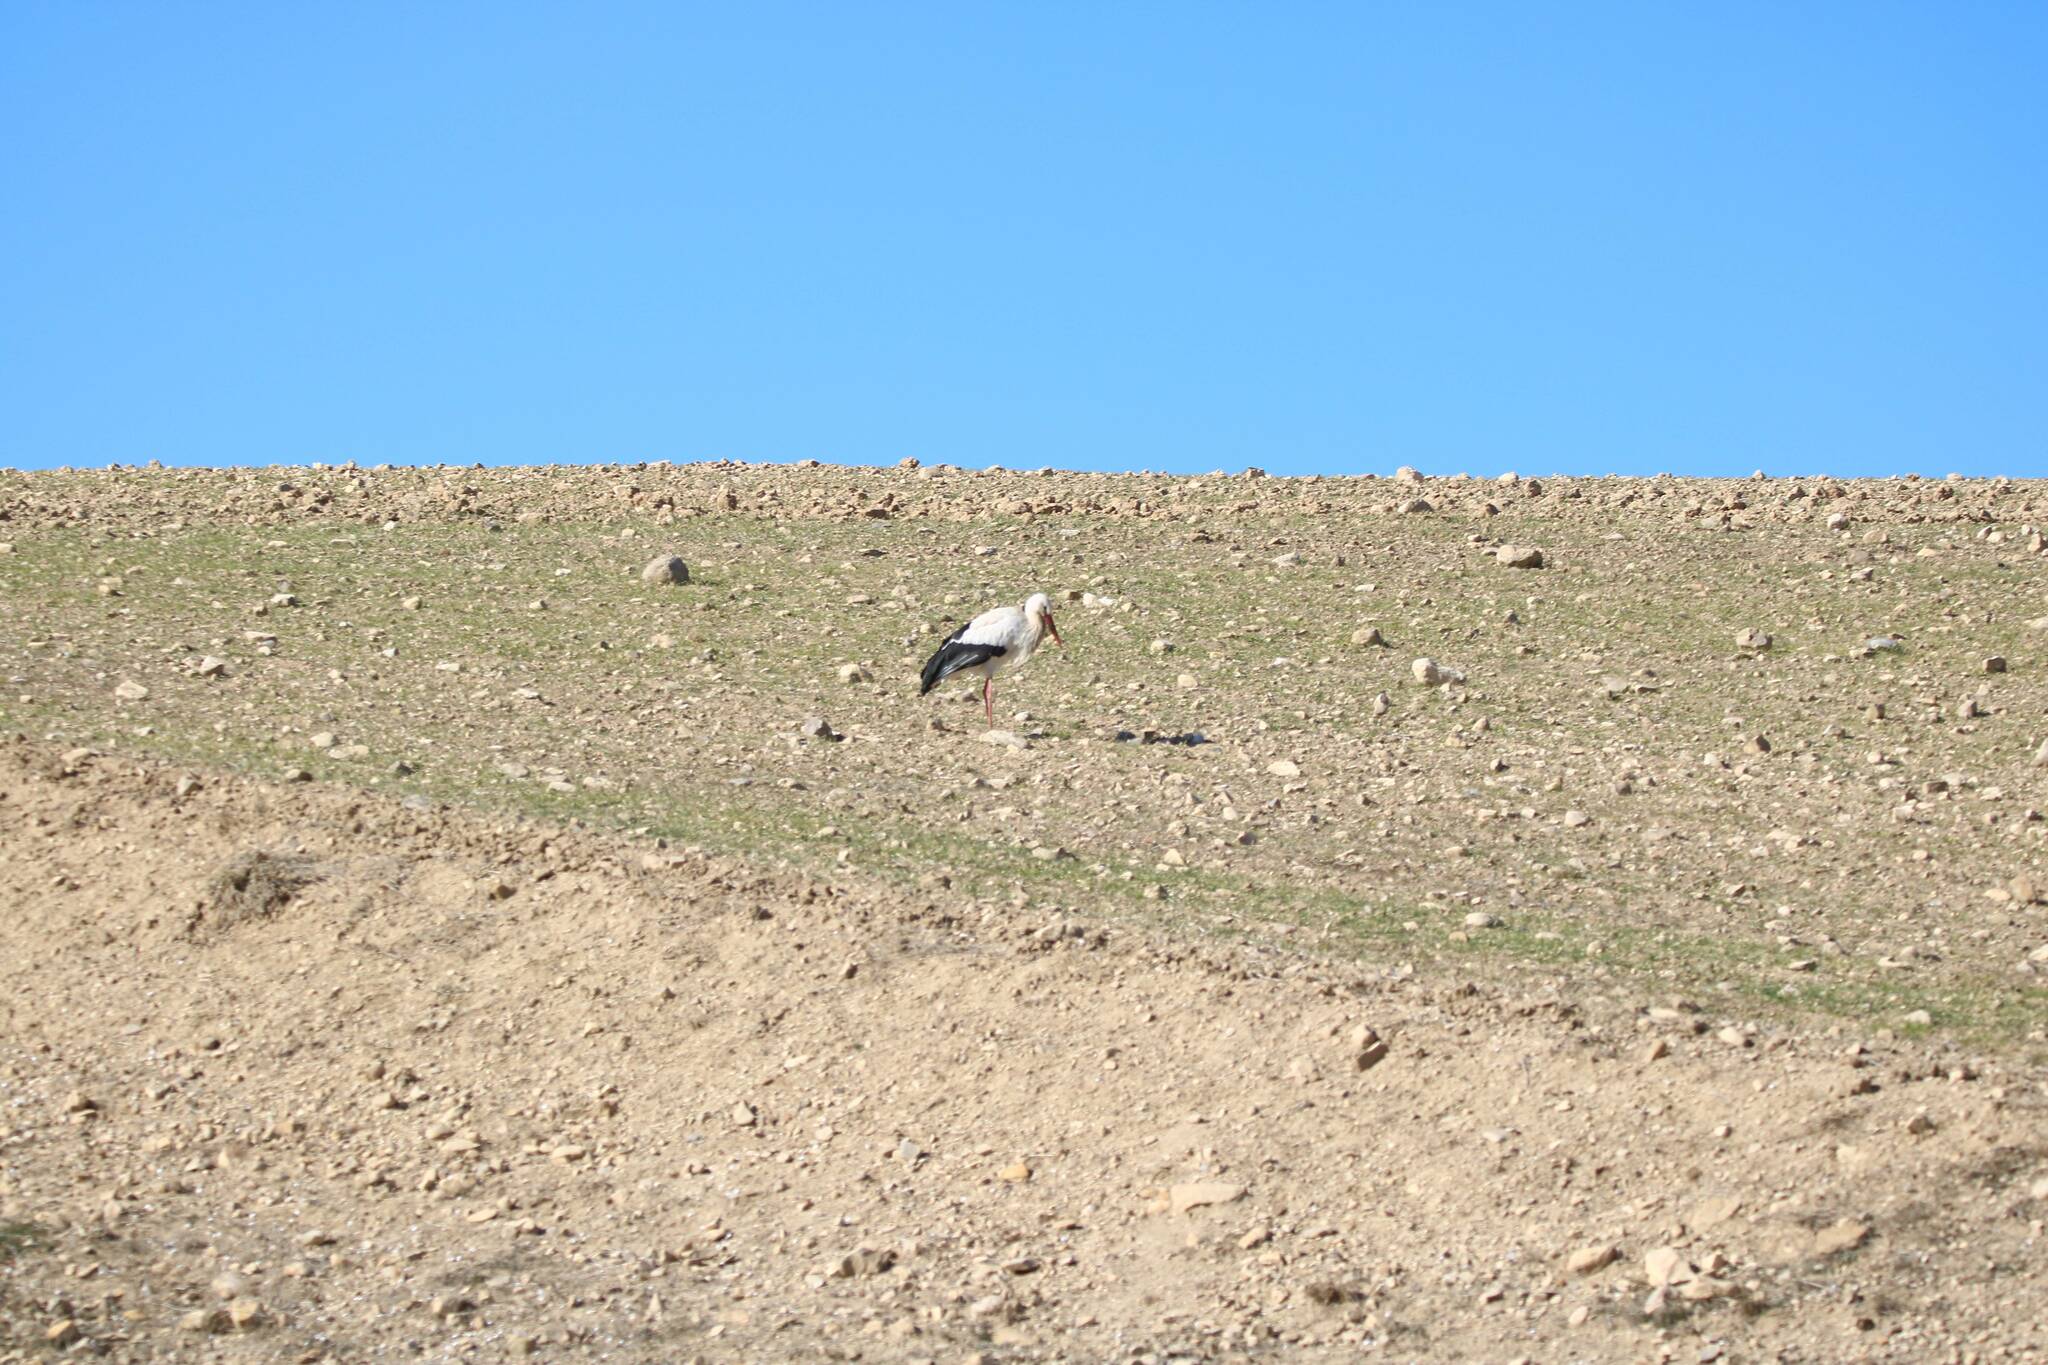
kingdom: Animalia
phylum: Chordata
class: Aves
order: Ciconiiformes
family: Ciconiidae
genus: Ciconia
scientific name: Ciconia ciconia
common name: White stork
